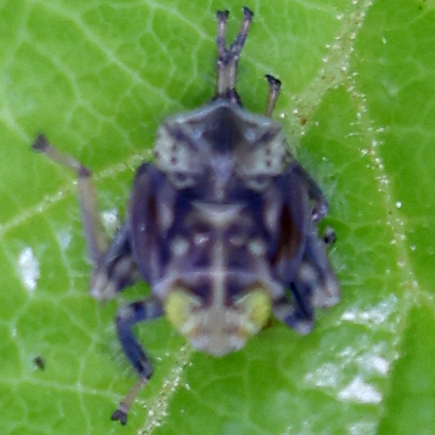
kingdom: Animalia
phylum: Arthropoda
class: Insecta
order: Hemiptera
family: Cicadellidae
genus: Jikradia
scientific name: Jikradia olitoria
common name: Coppery leafhopper
